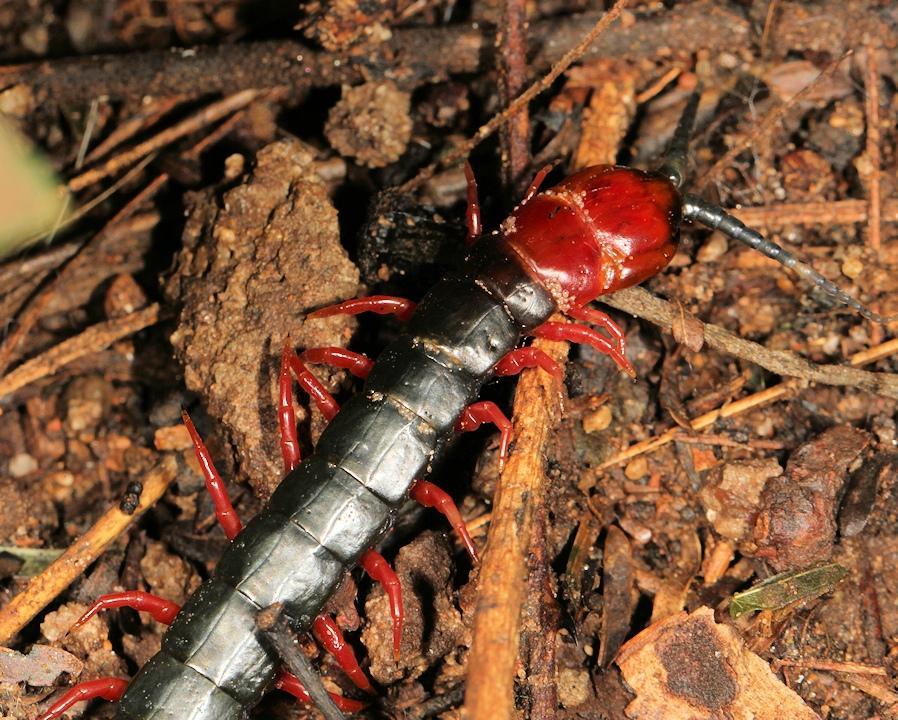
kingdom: Animalia
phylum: Arthropoda
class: Chilopoda
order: Scolopendromorpha
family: Scolopendridae
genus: Cormocephalus
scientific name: Cormocephalus nitidus
